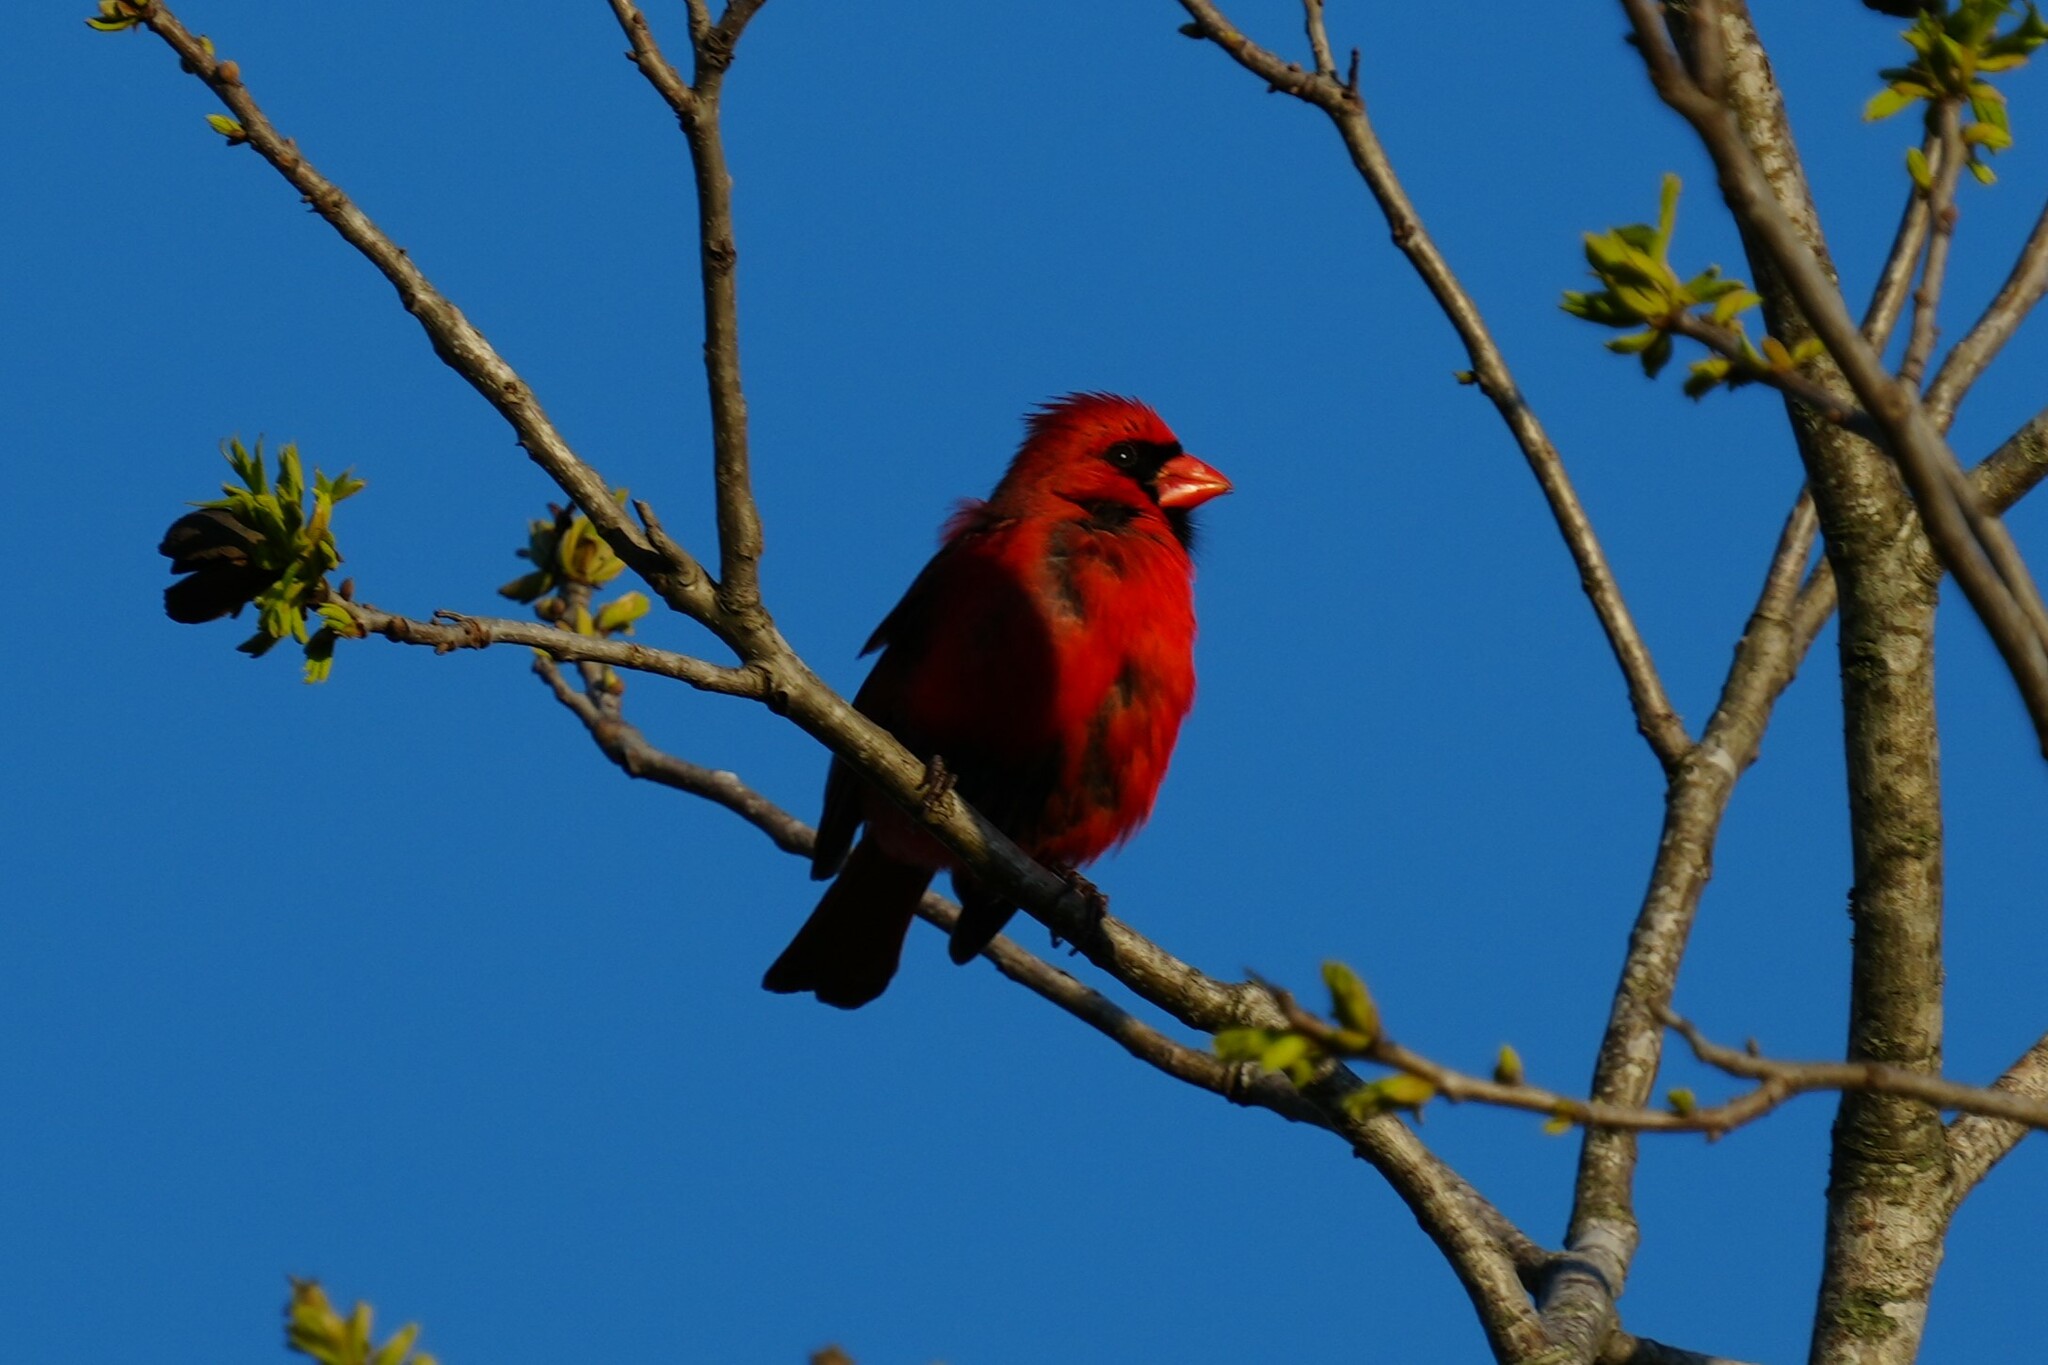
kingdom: Animalia
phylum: Chordata
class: Aves
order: Passeriformes
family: Cardinalidae
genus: Cardinalis
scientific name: Cardinalis cardinalis
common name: Northern cardinal
